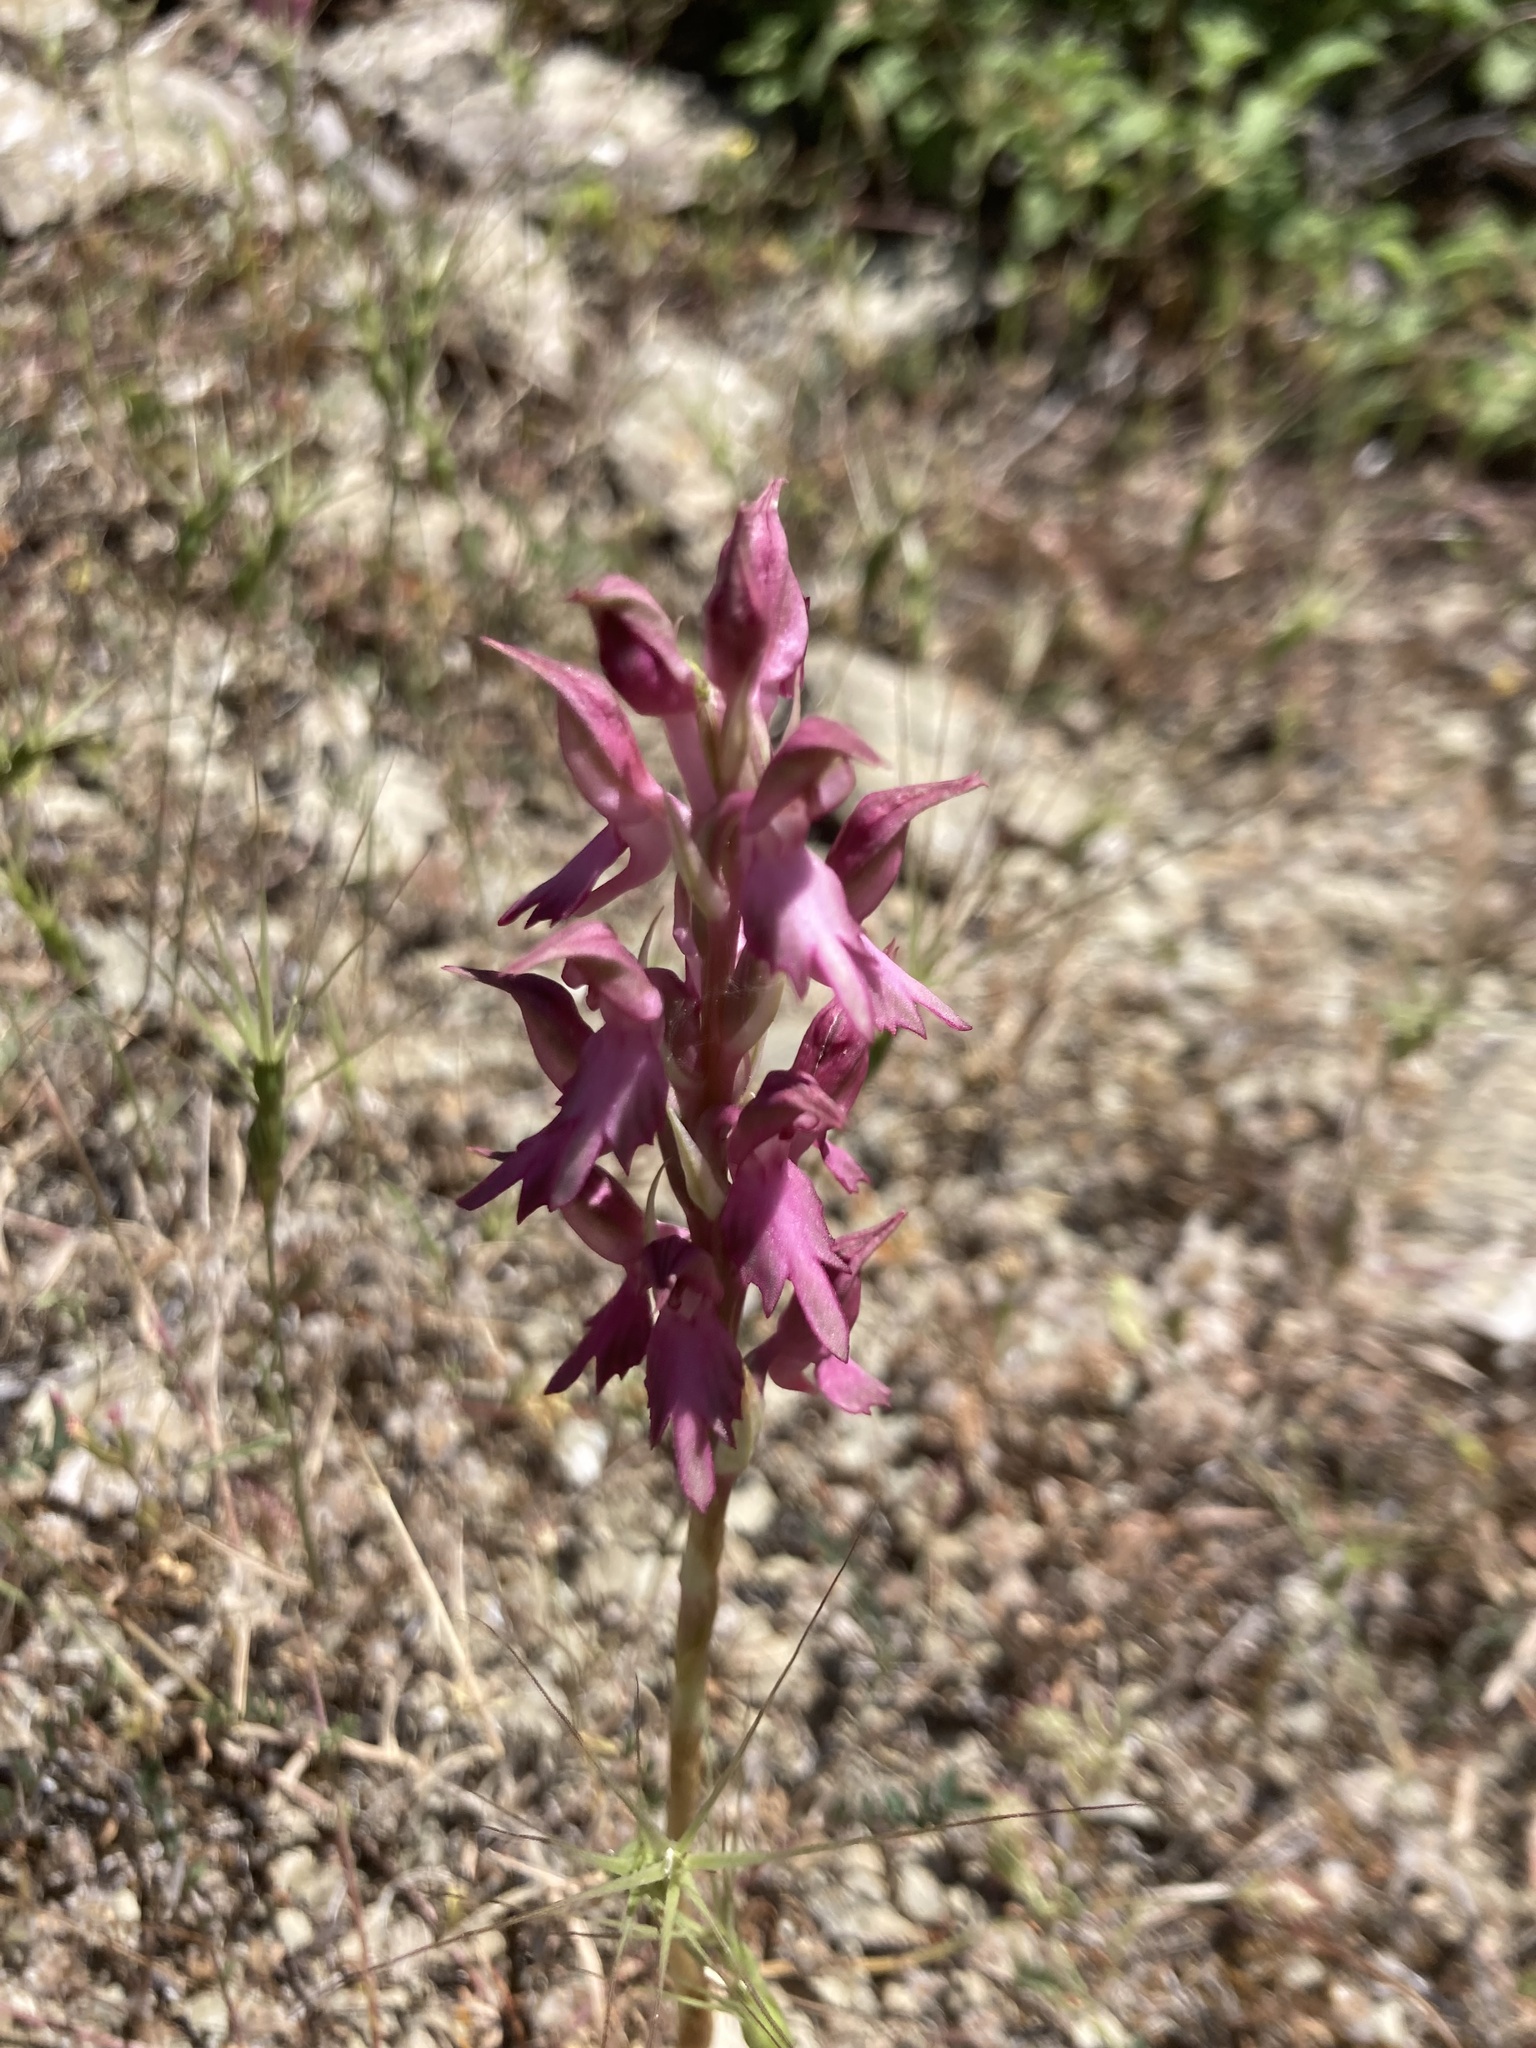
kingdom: Plantae
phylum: Tracheophyta
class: Liliopsida
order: Asparagales
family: Orchidaceae
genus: Anacamptis
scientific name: Anacamptis sancta
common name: Holy orchid
